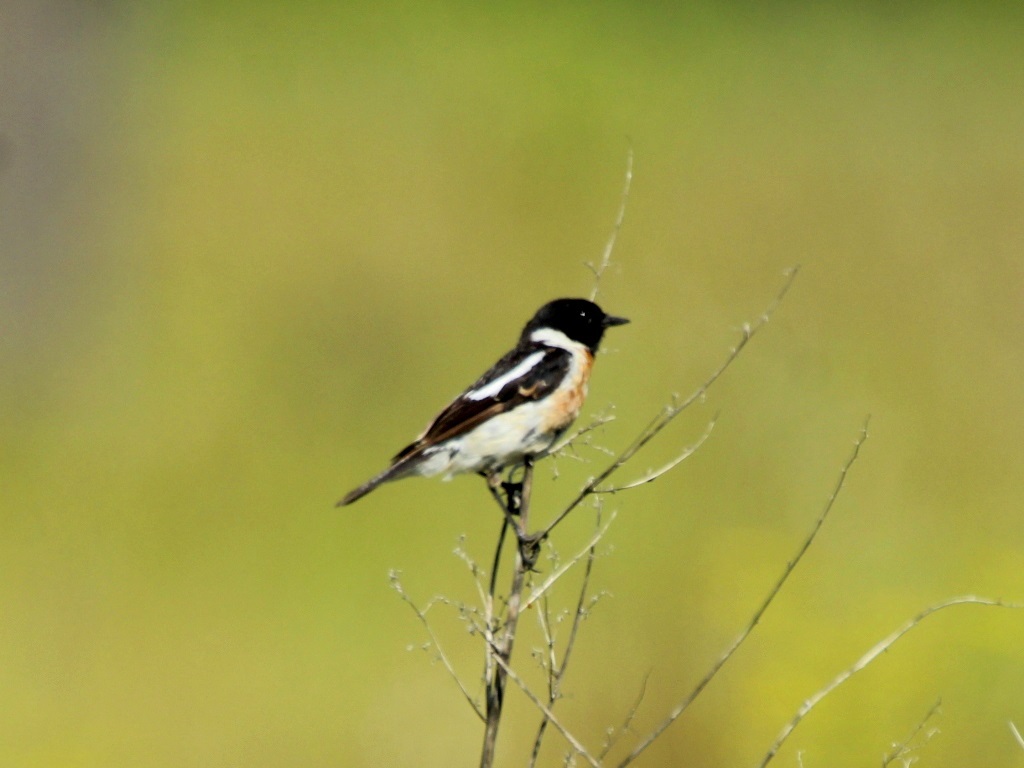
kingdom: Animalia
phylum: Chordata
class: Aves
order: Passeriformes
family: Muscicapidae
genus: Saxicola
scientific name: Saxicola maurus
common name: Siberian stonechat
